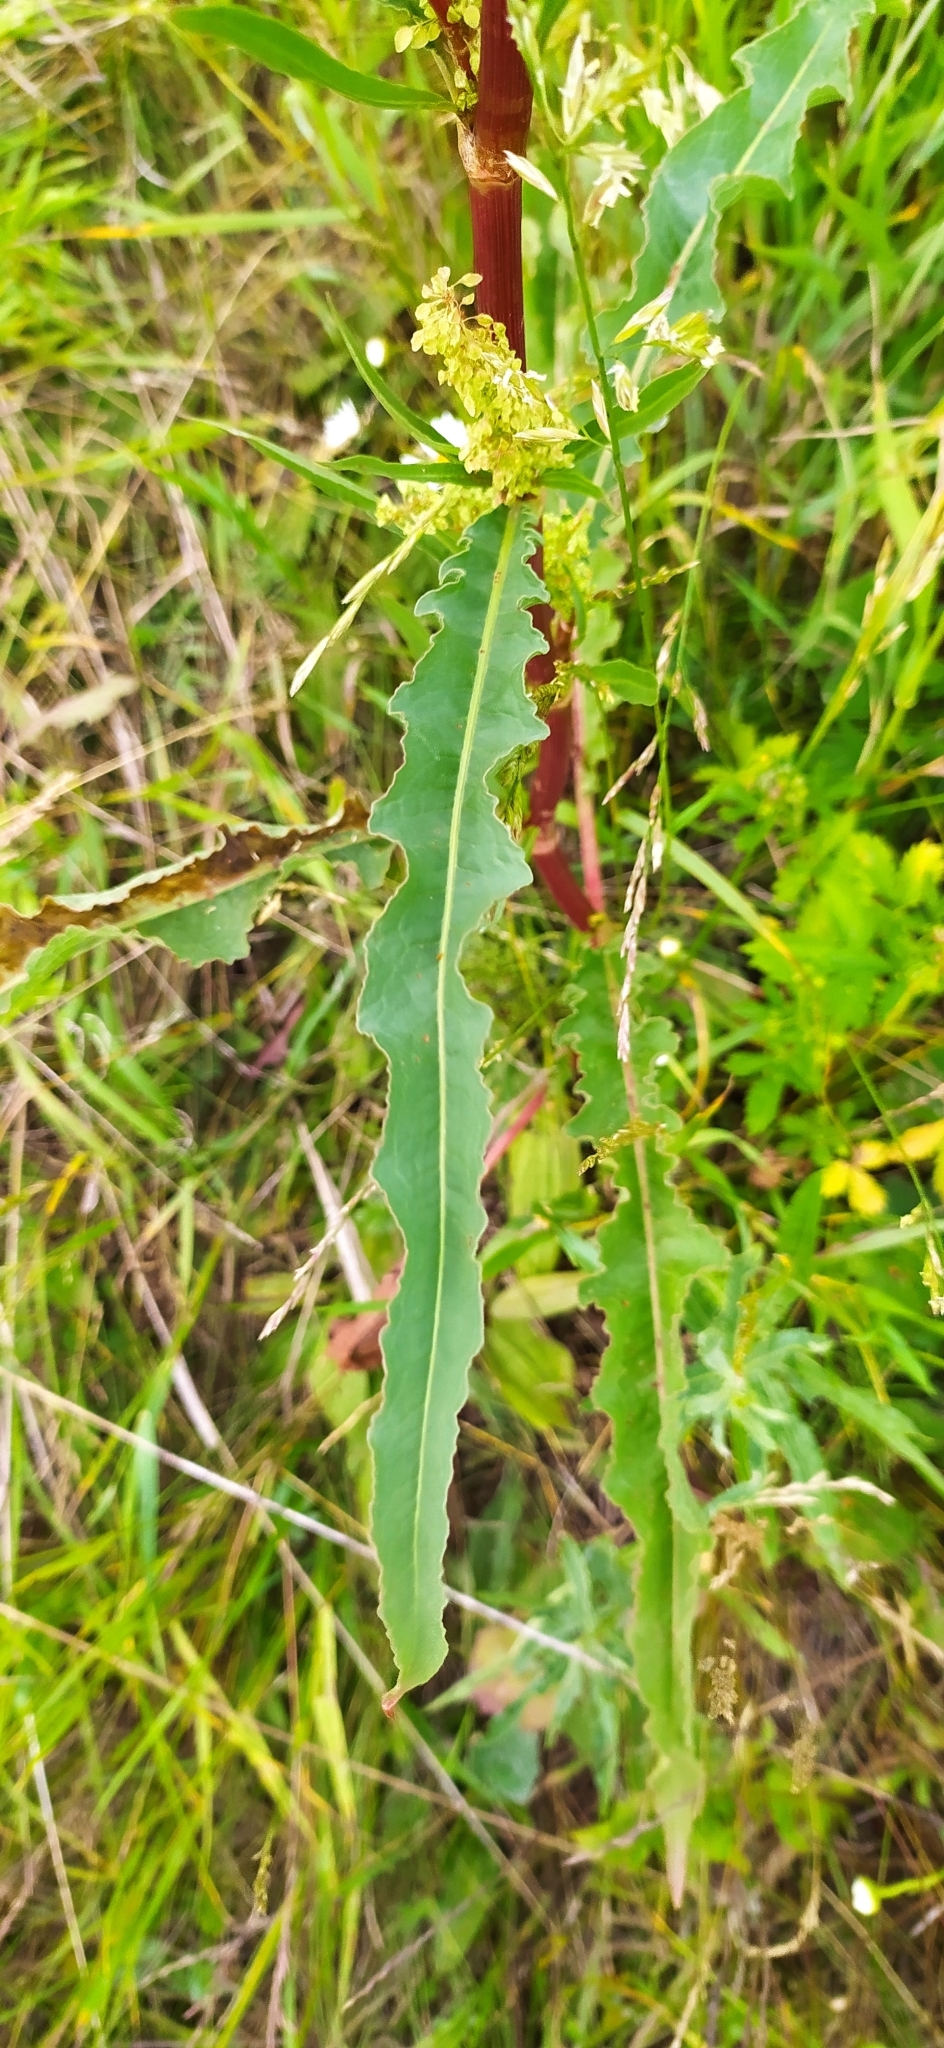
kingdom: Plantae
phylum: Tracheophyta
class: Magnoliopsida
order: Caryophyllales
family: Polygonaceae
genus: Rumex
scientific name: Rumex pseudonatronatus
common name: Field dock
